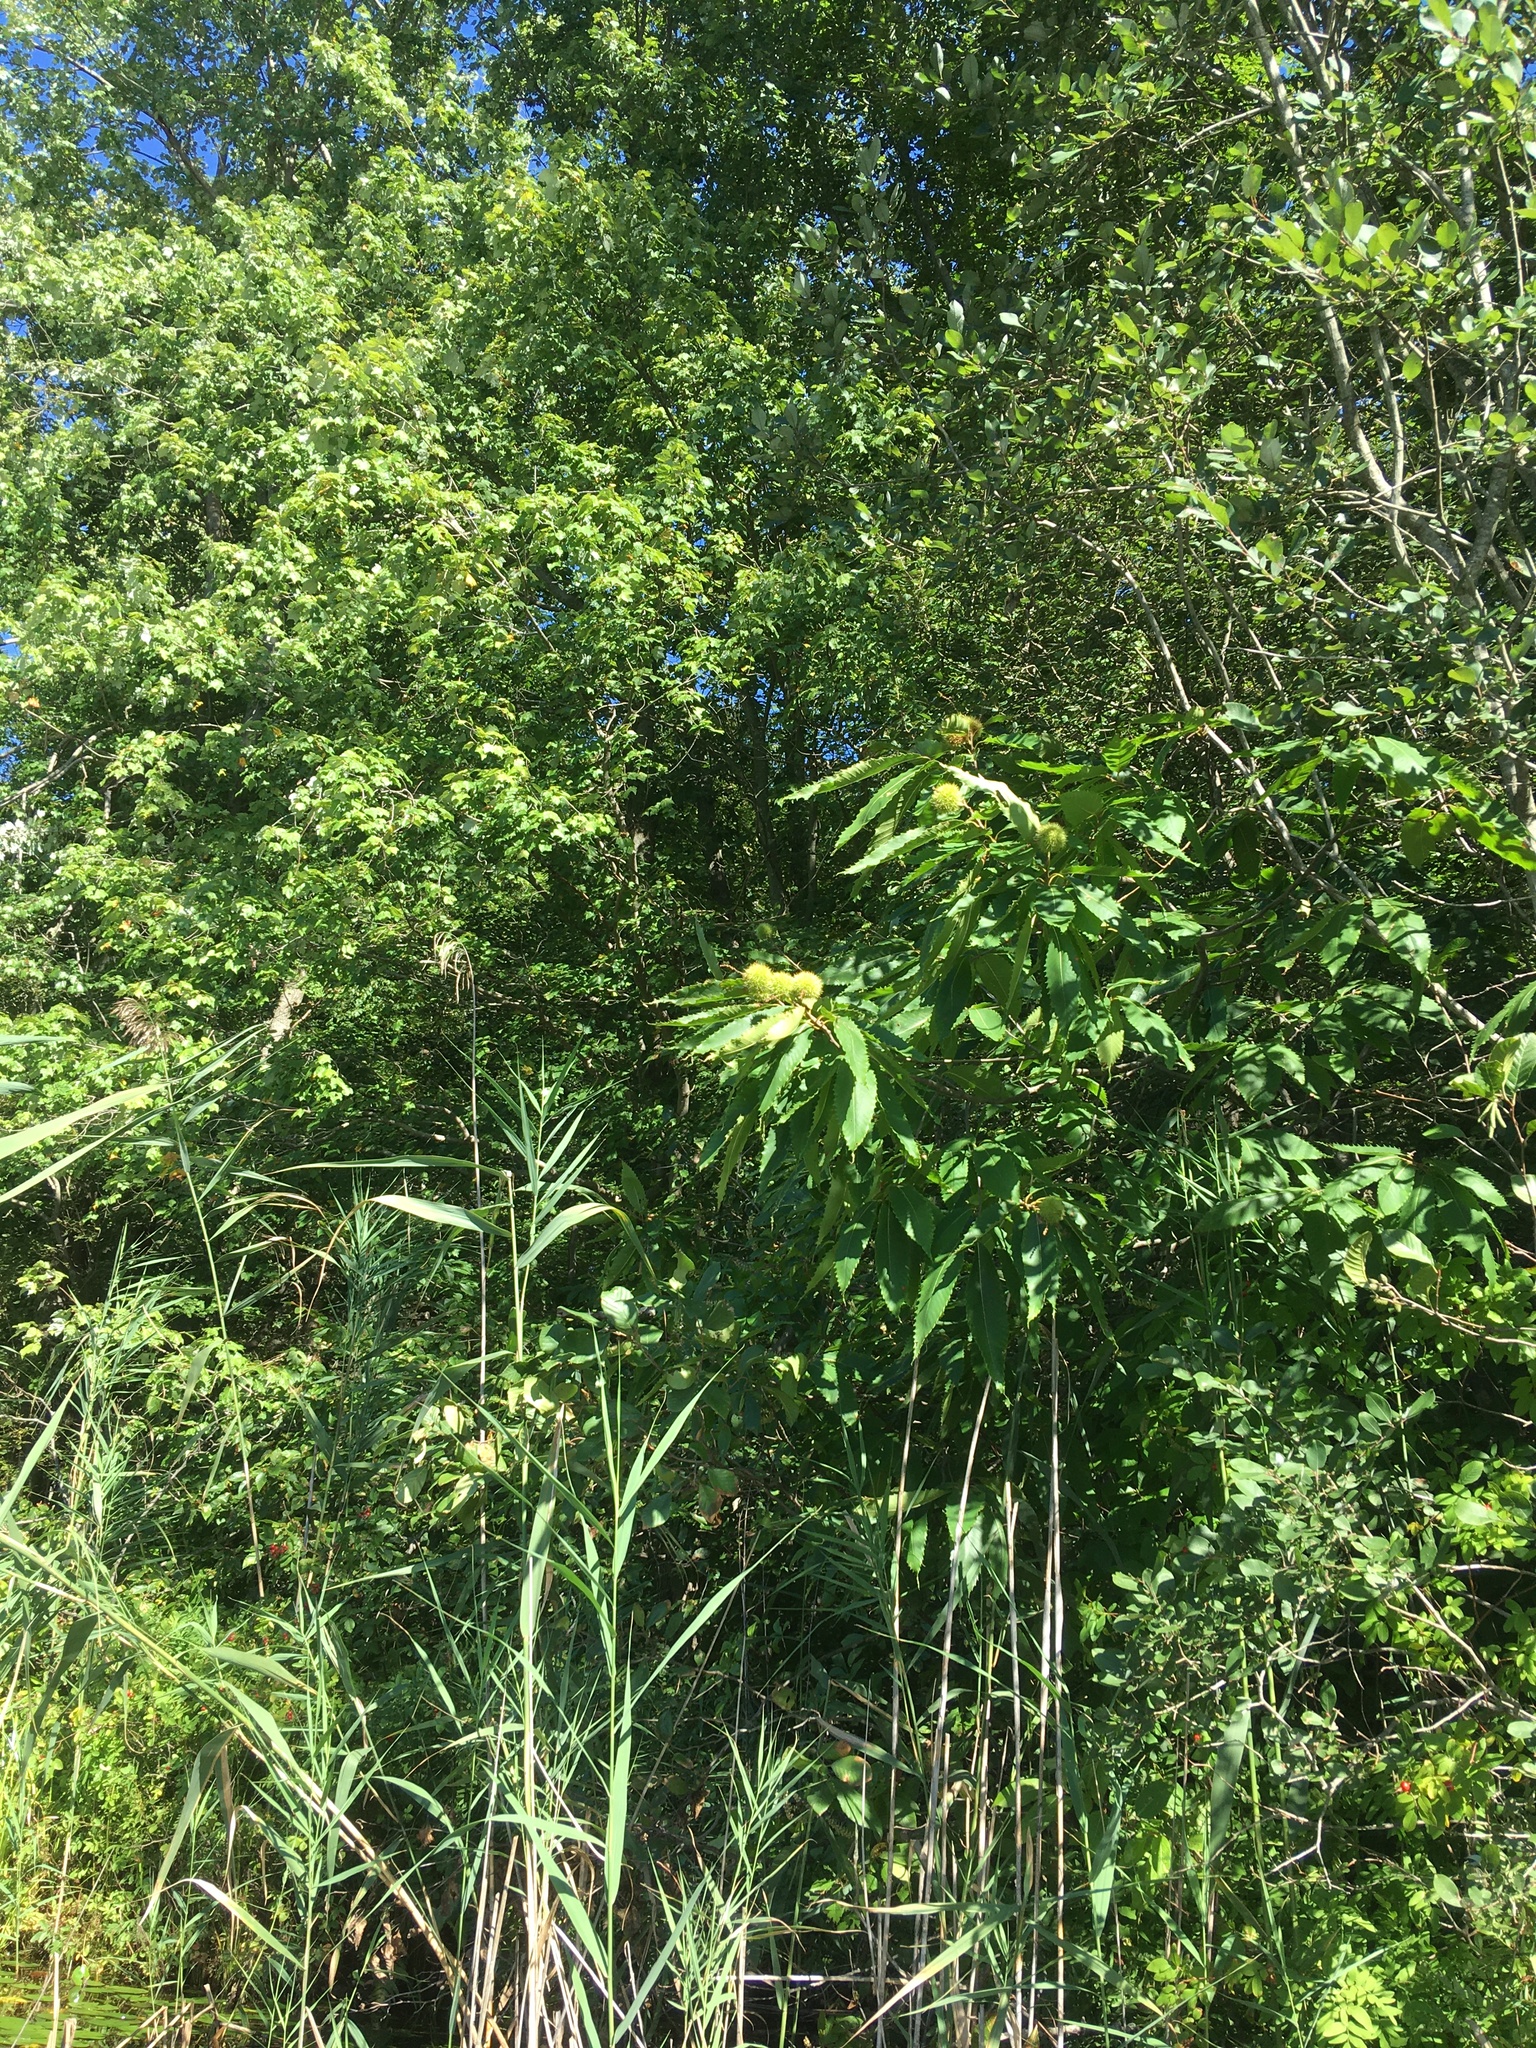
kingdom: Plantae
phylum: Tracheophyta
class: Magnoliopsida
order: Fagales
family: Fagaceae
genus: Castanea
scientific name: Castanea dentata
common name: American chestnut
